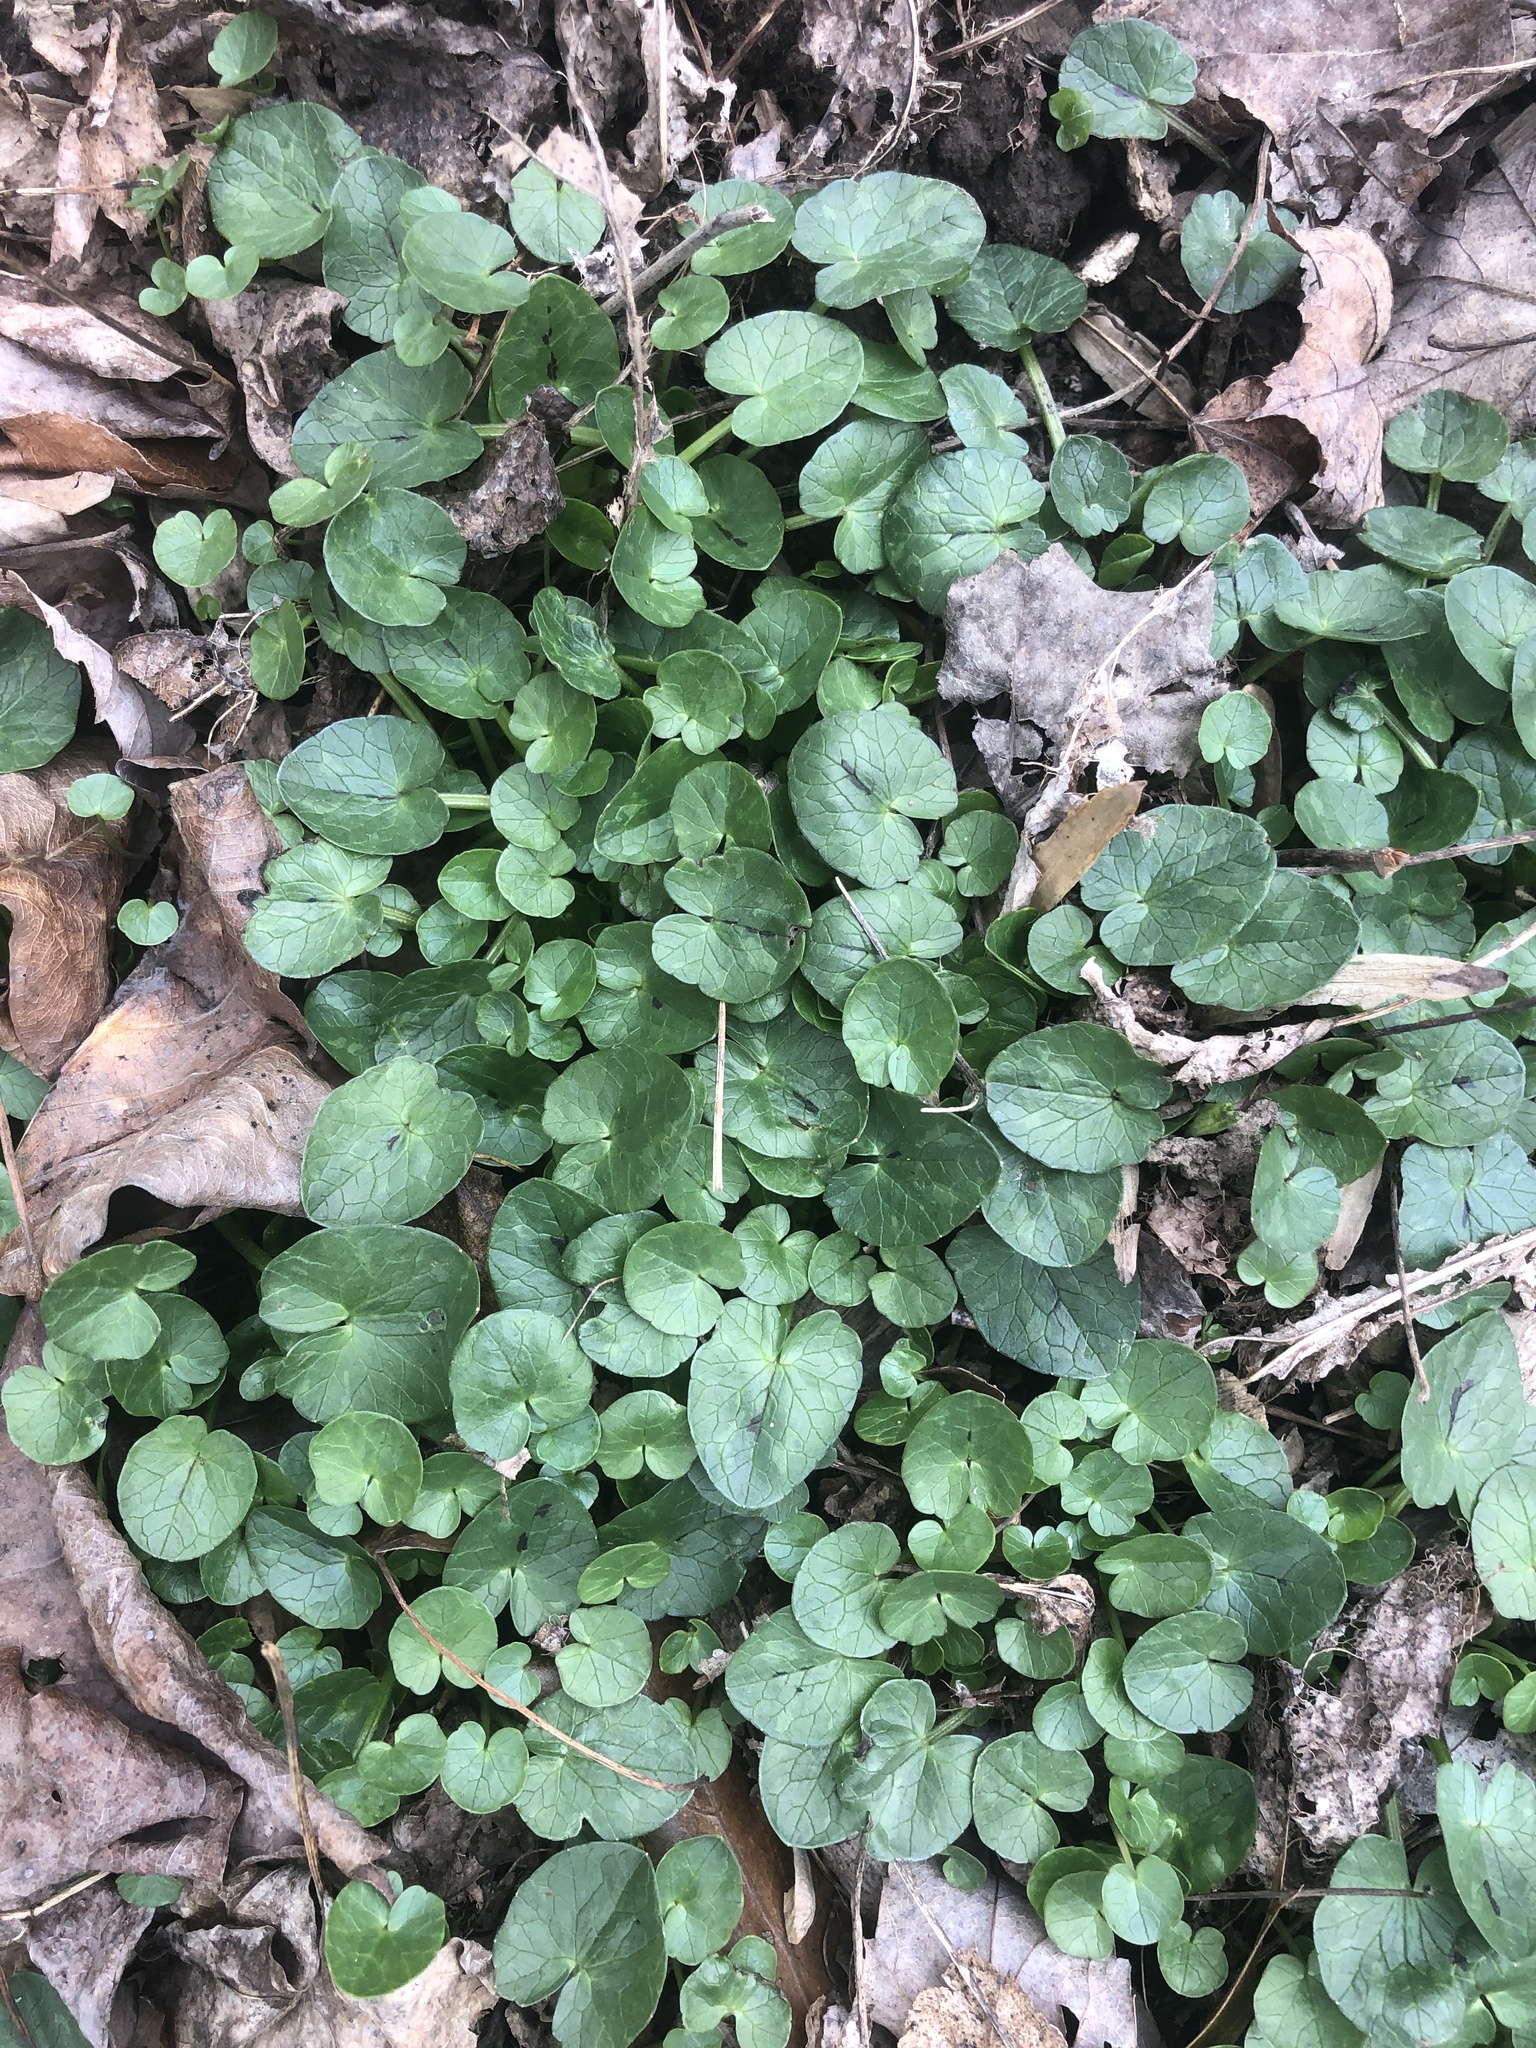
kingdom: Plantae
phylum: Tracheophyta
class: Magnoliopsida
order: Ranunculales
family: Ranunculaceae
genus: Ficaria
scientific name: Ficaria verna
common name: Lesser celandine
